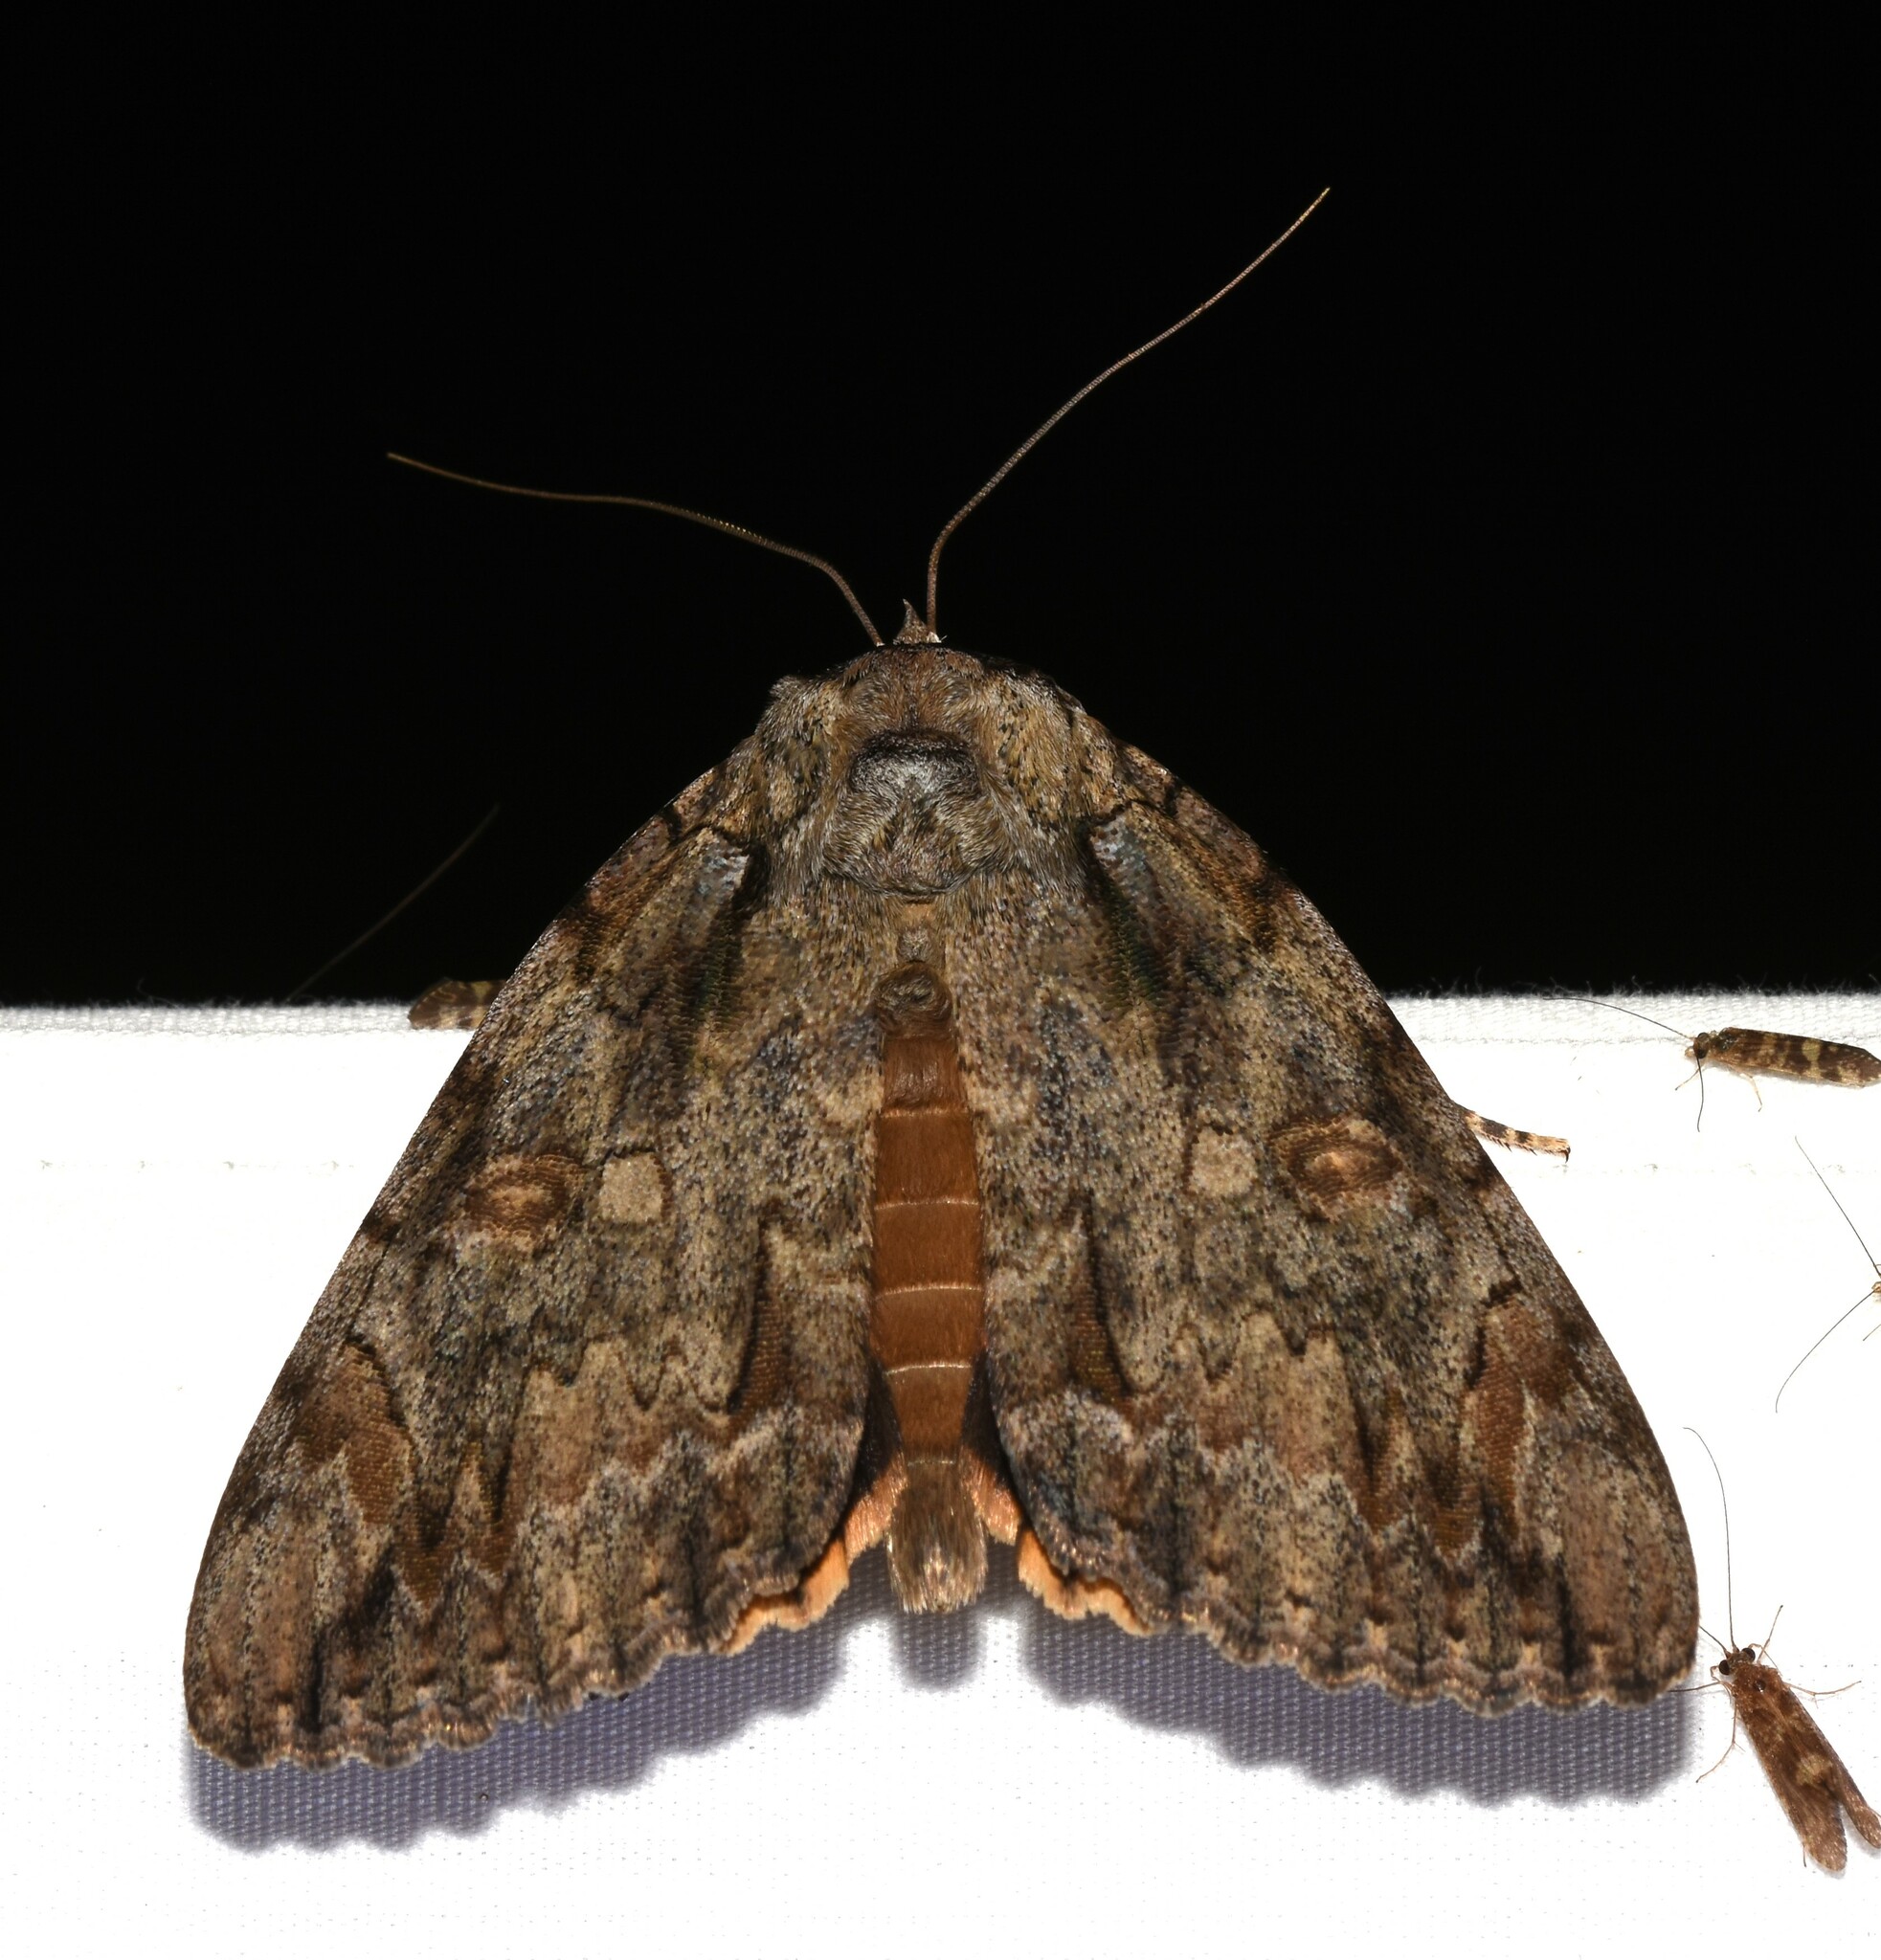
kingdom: Animalia
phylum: Arthropoda
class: Insecta
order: Lepidoptera
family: Erebidae
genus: Catocala
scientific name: Catocala neogama
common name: Bride underwing
